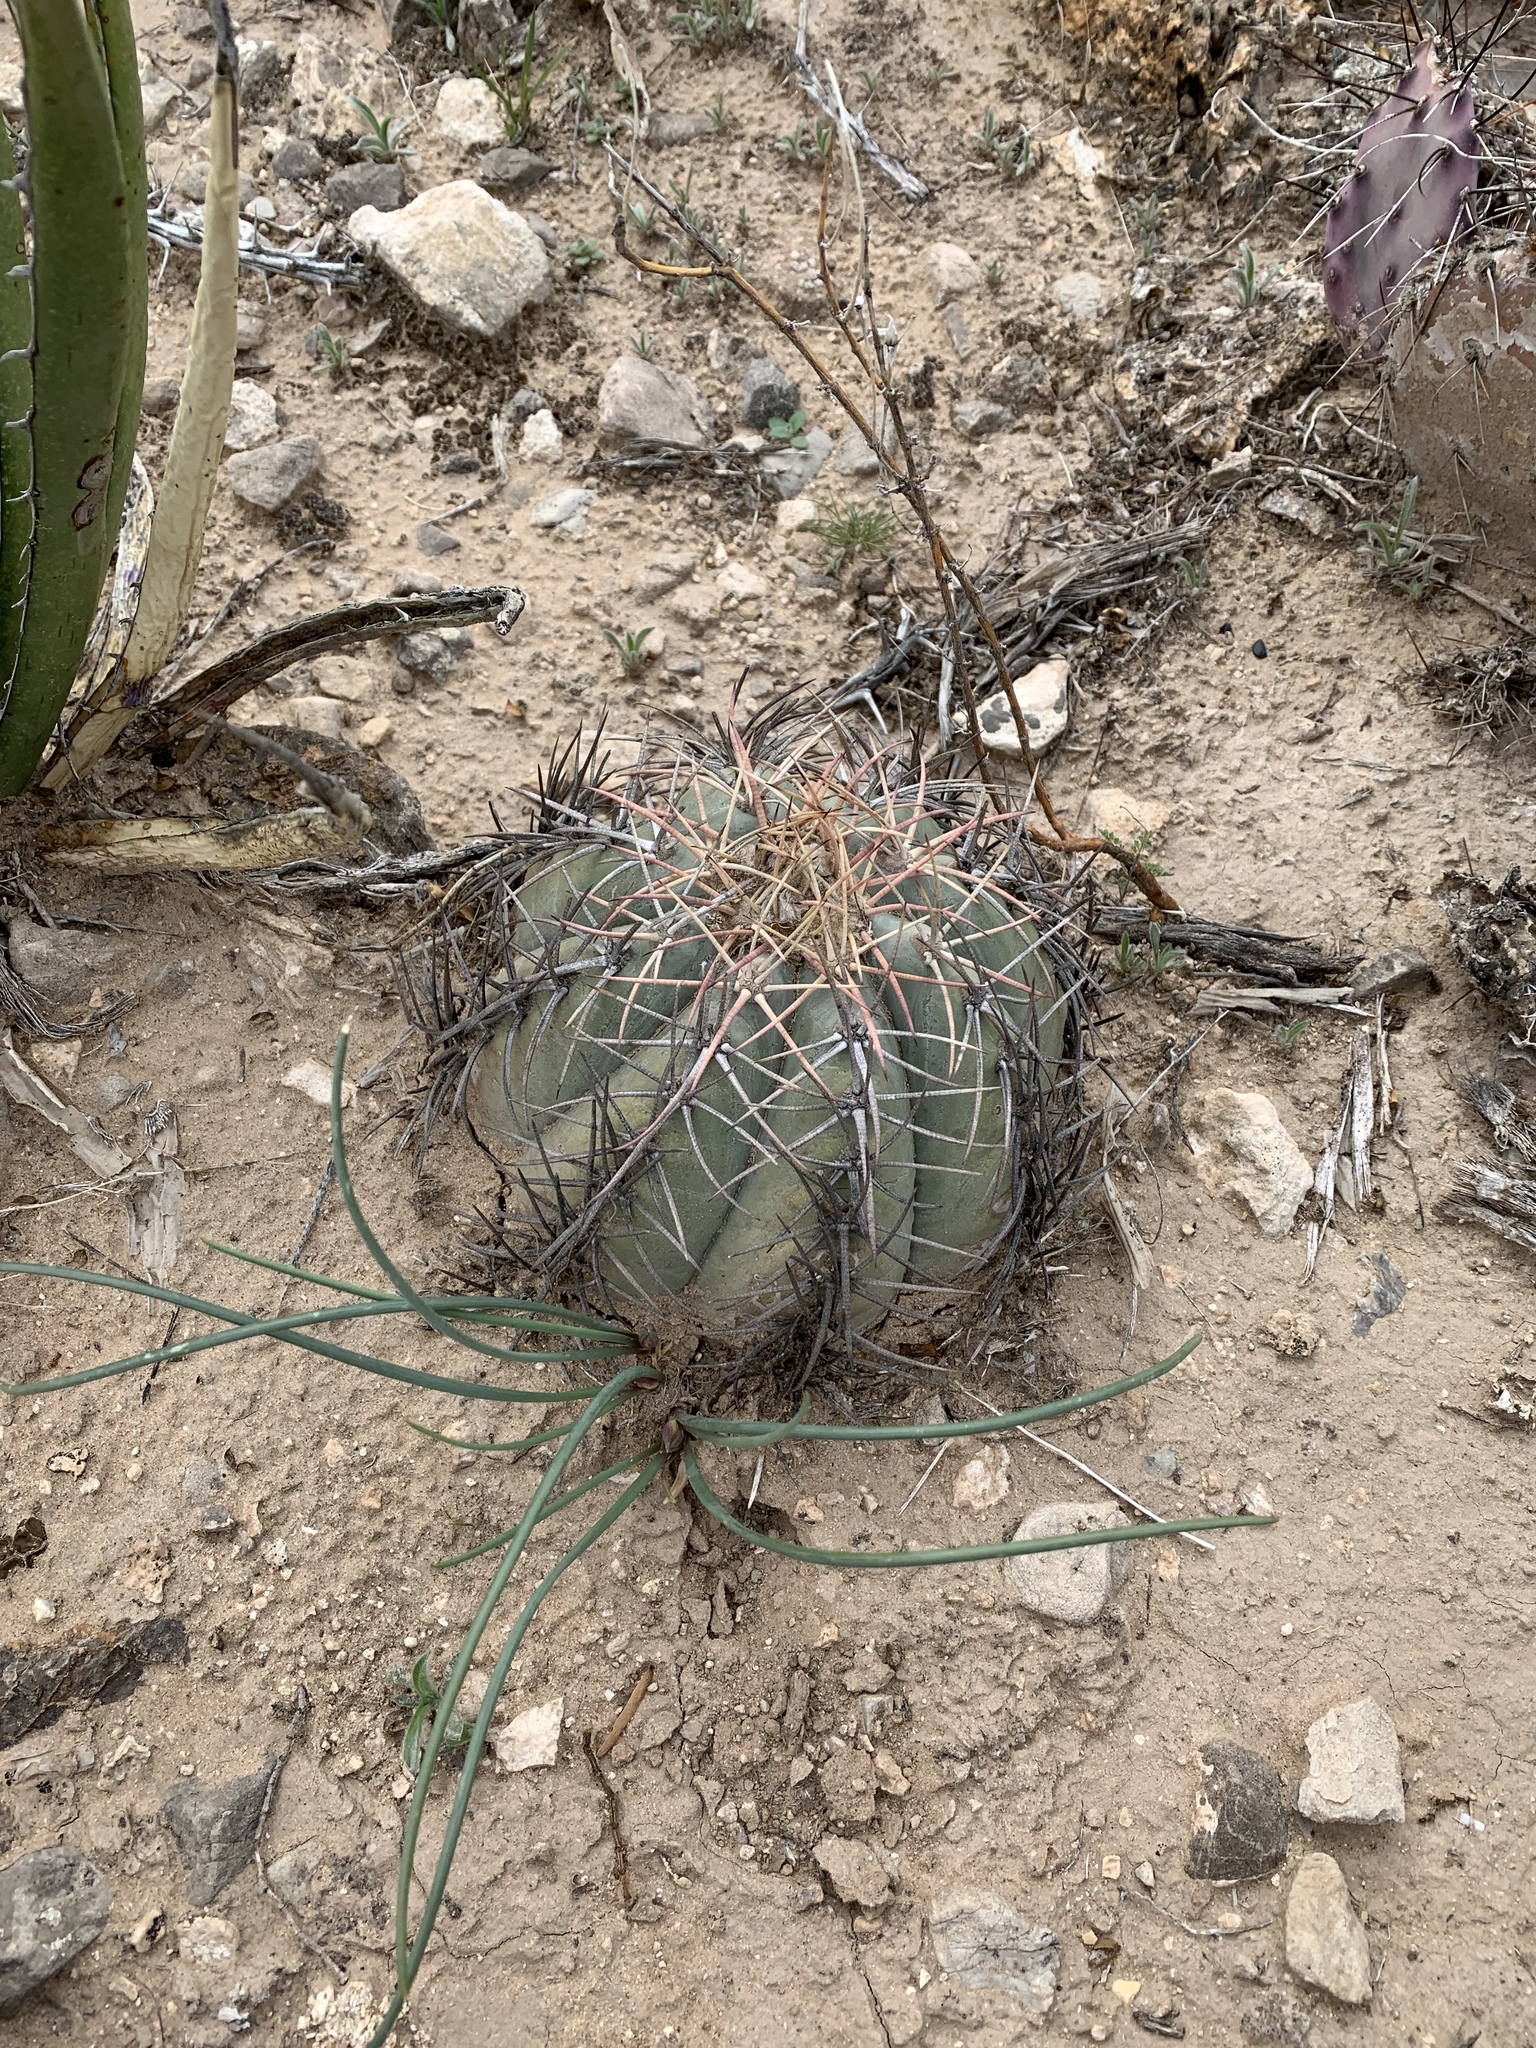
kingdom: Plantae
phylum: Tracheophyta
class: Magnoliopsida
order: Caryophyllales
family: Cactaceae
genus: Echinocactus
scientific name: Echinocactus horizonthalonius
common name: Devilshead
